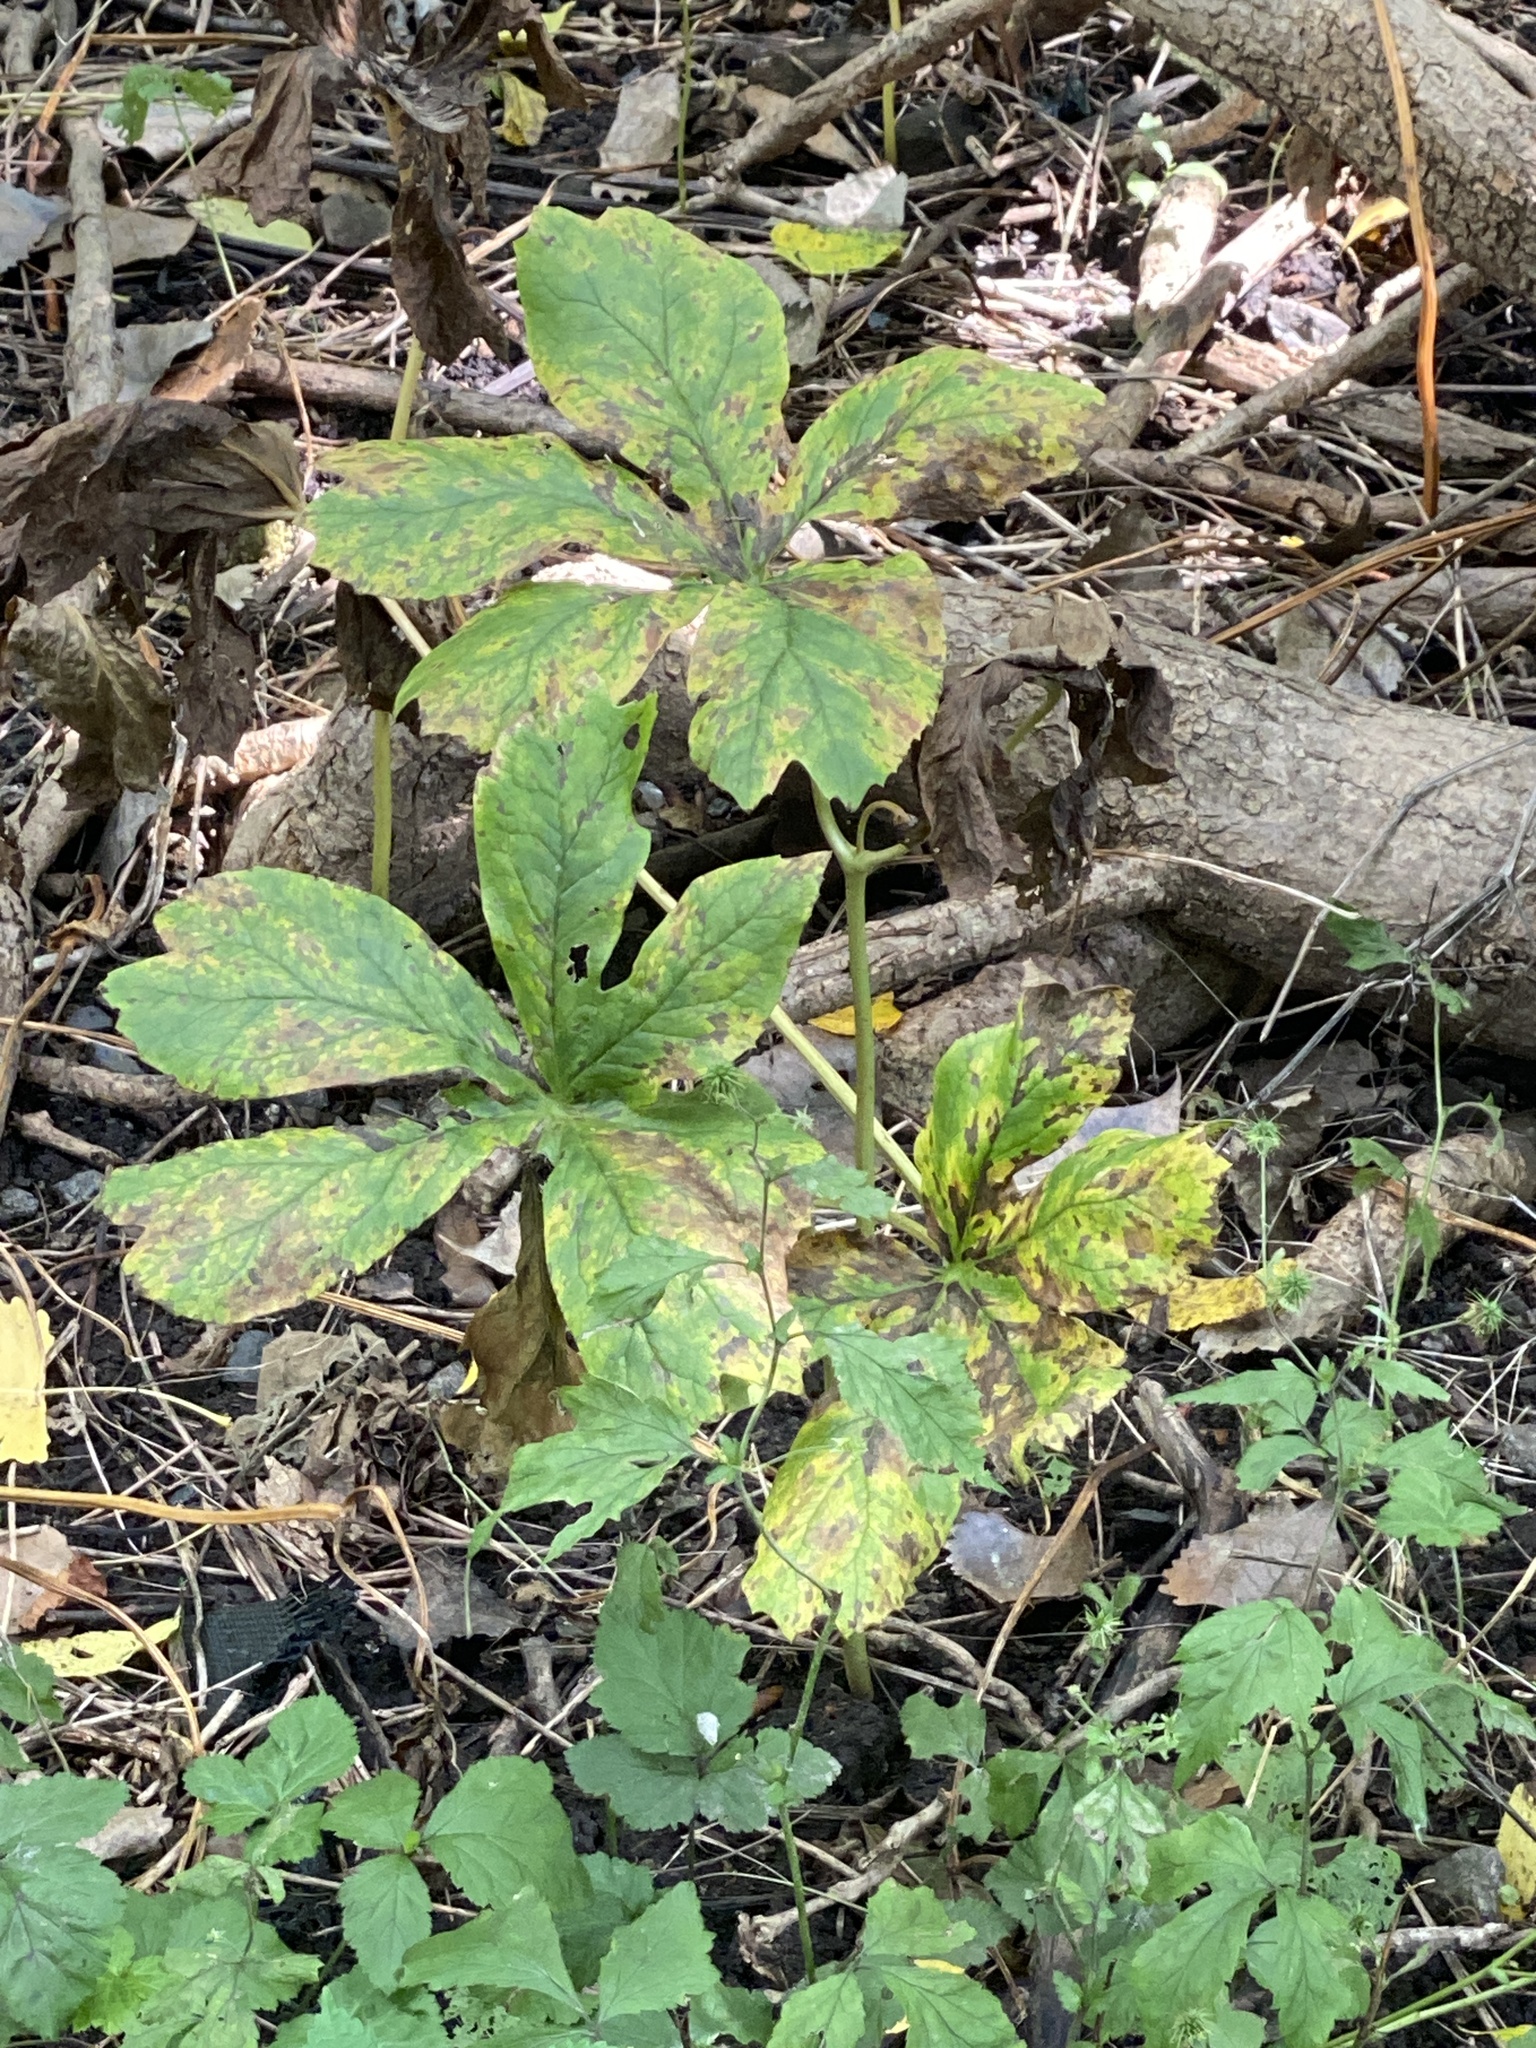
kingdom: Plantae
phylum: Tracheophyta
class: Magnoliopsida
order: Ranunculales
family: Berberidaceae
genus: Podophyllum
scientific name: Podophyllum peltatum
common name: Wild mandrake
